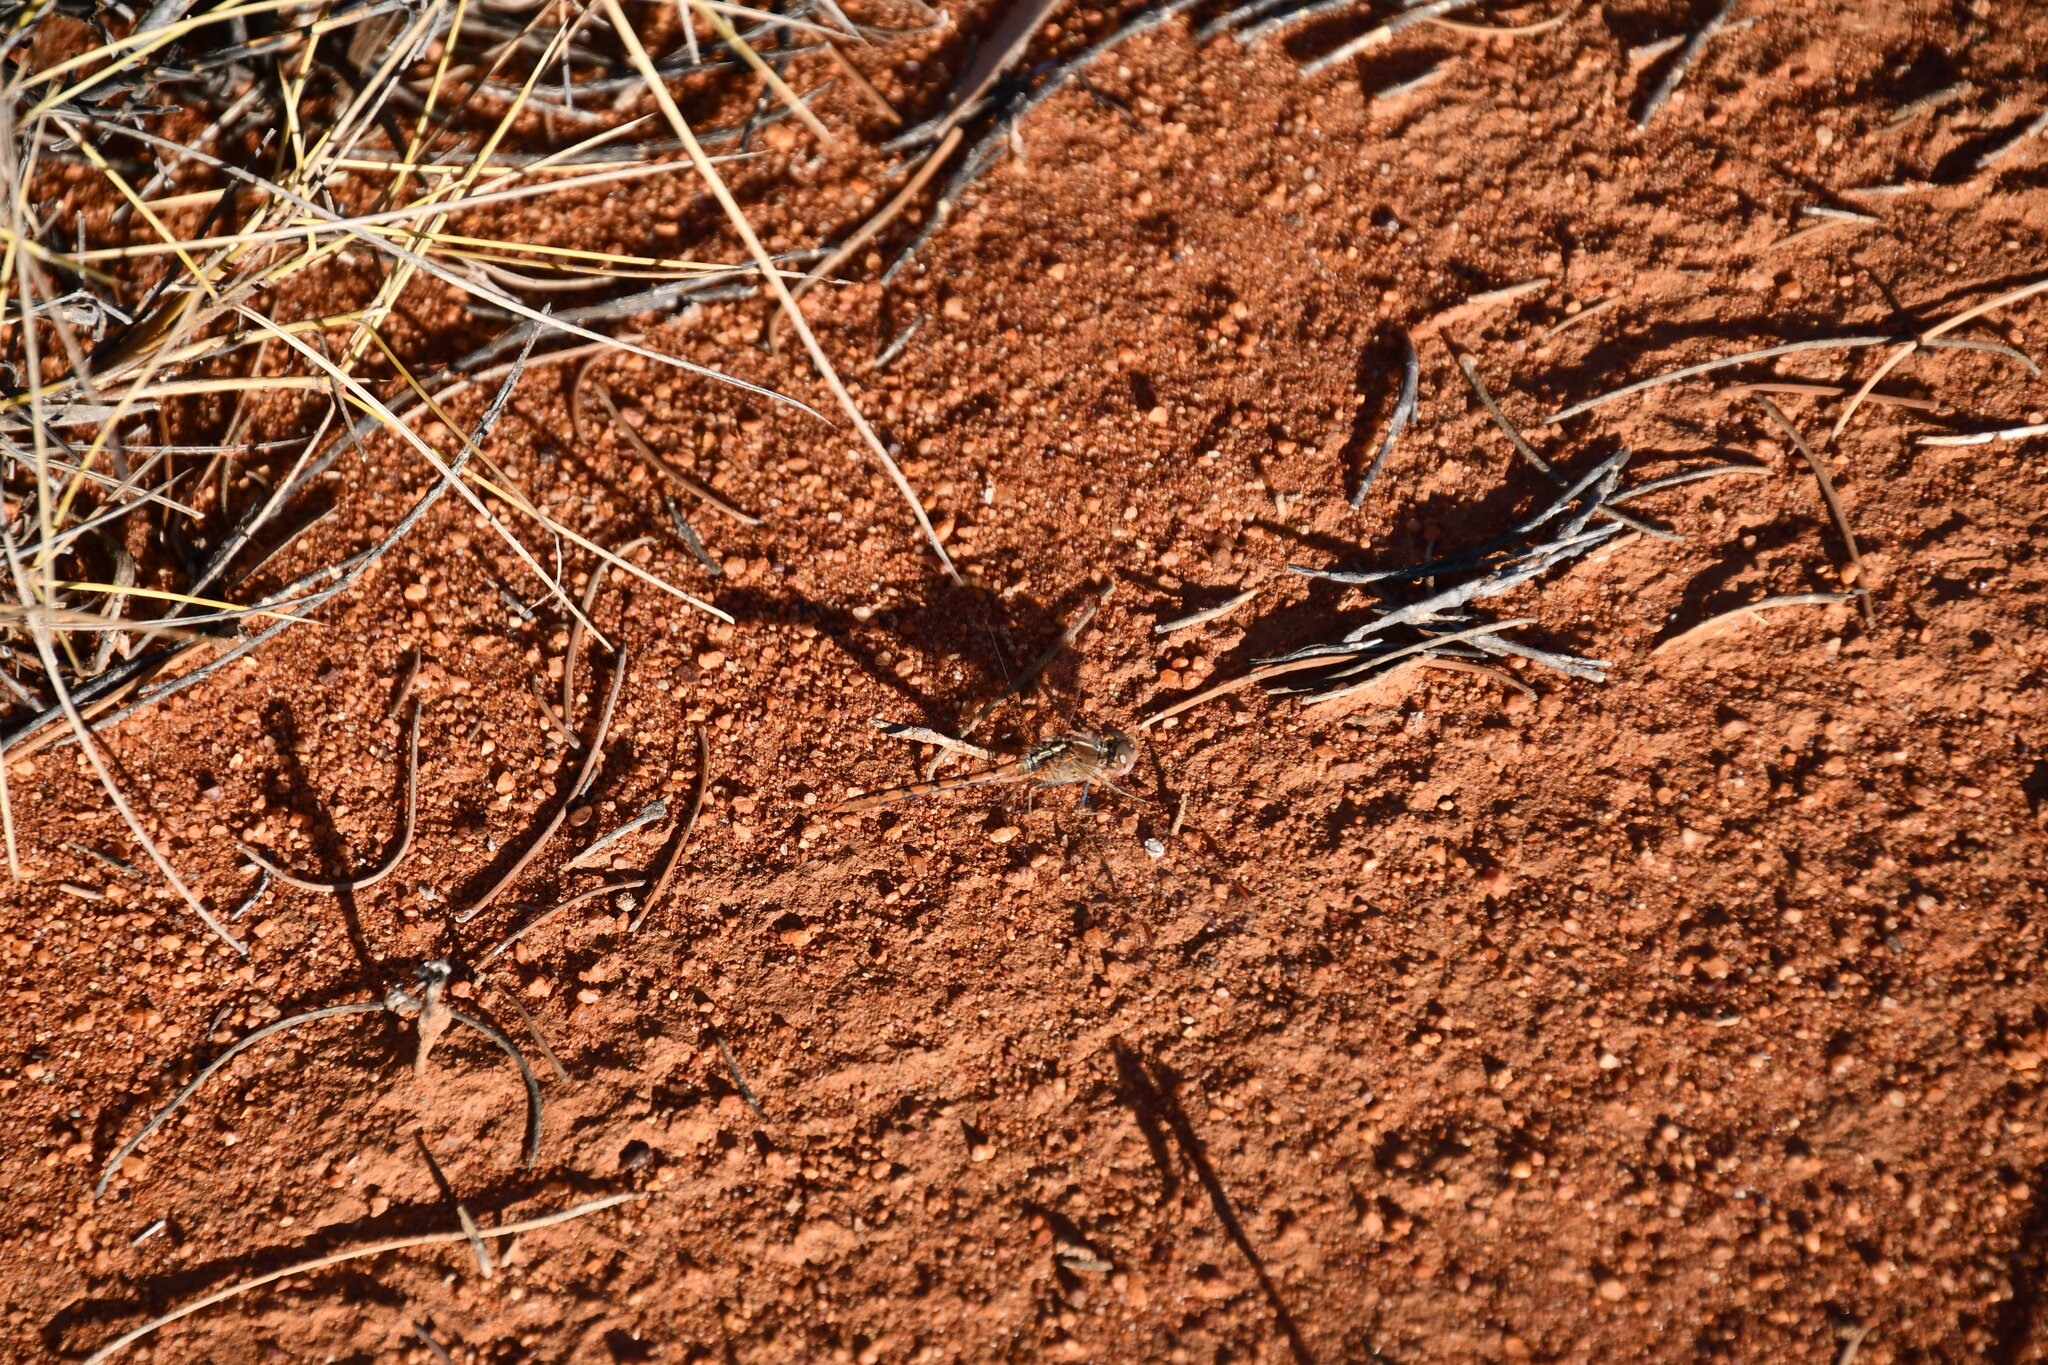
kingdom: Animalia
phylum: Arthropoda
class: Insecta
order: Odonata
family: Libellulidae
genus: Diplacodes
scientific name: Diplacodes bipunctata
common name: Red percher dragonfly
